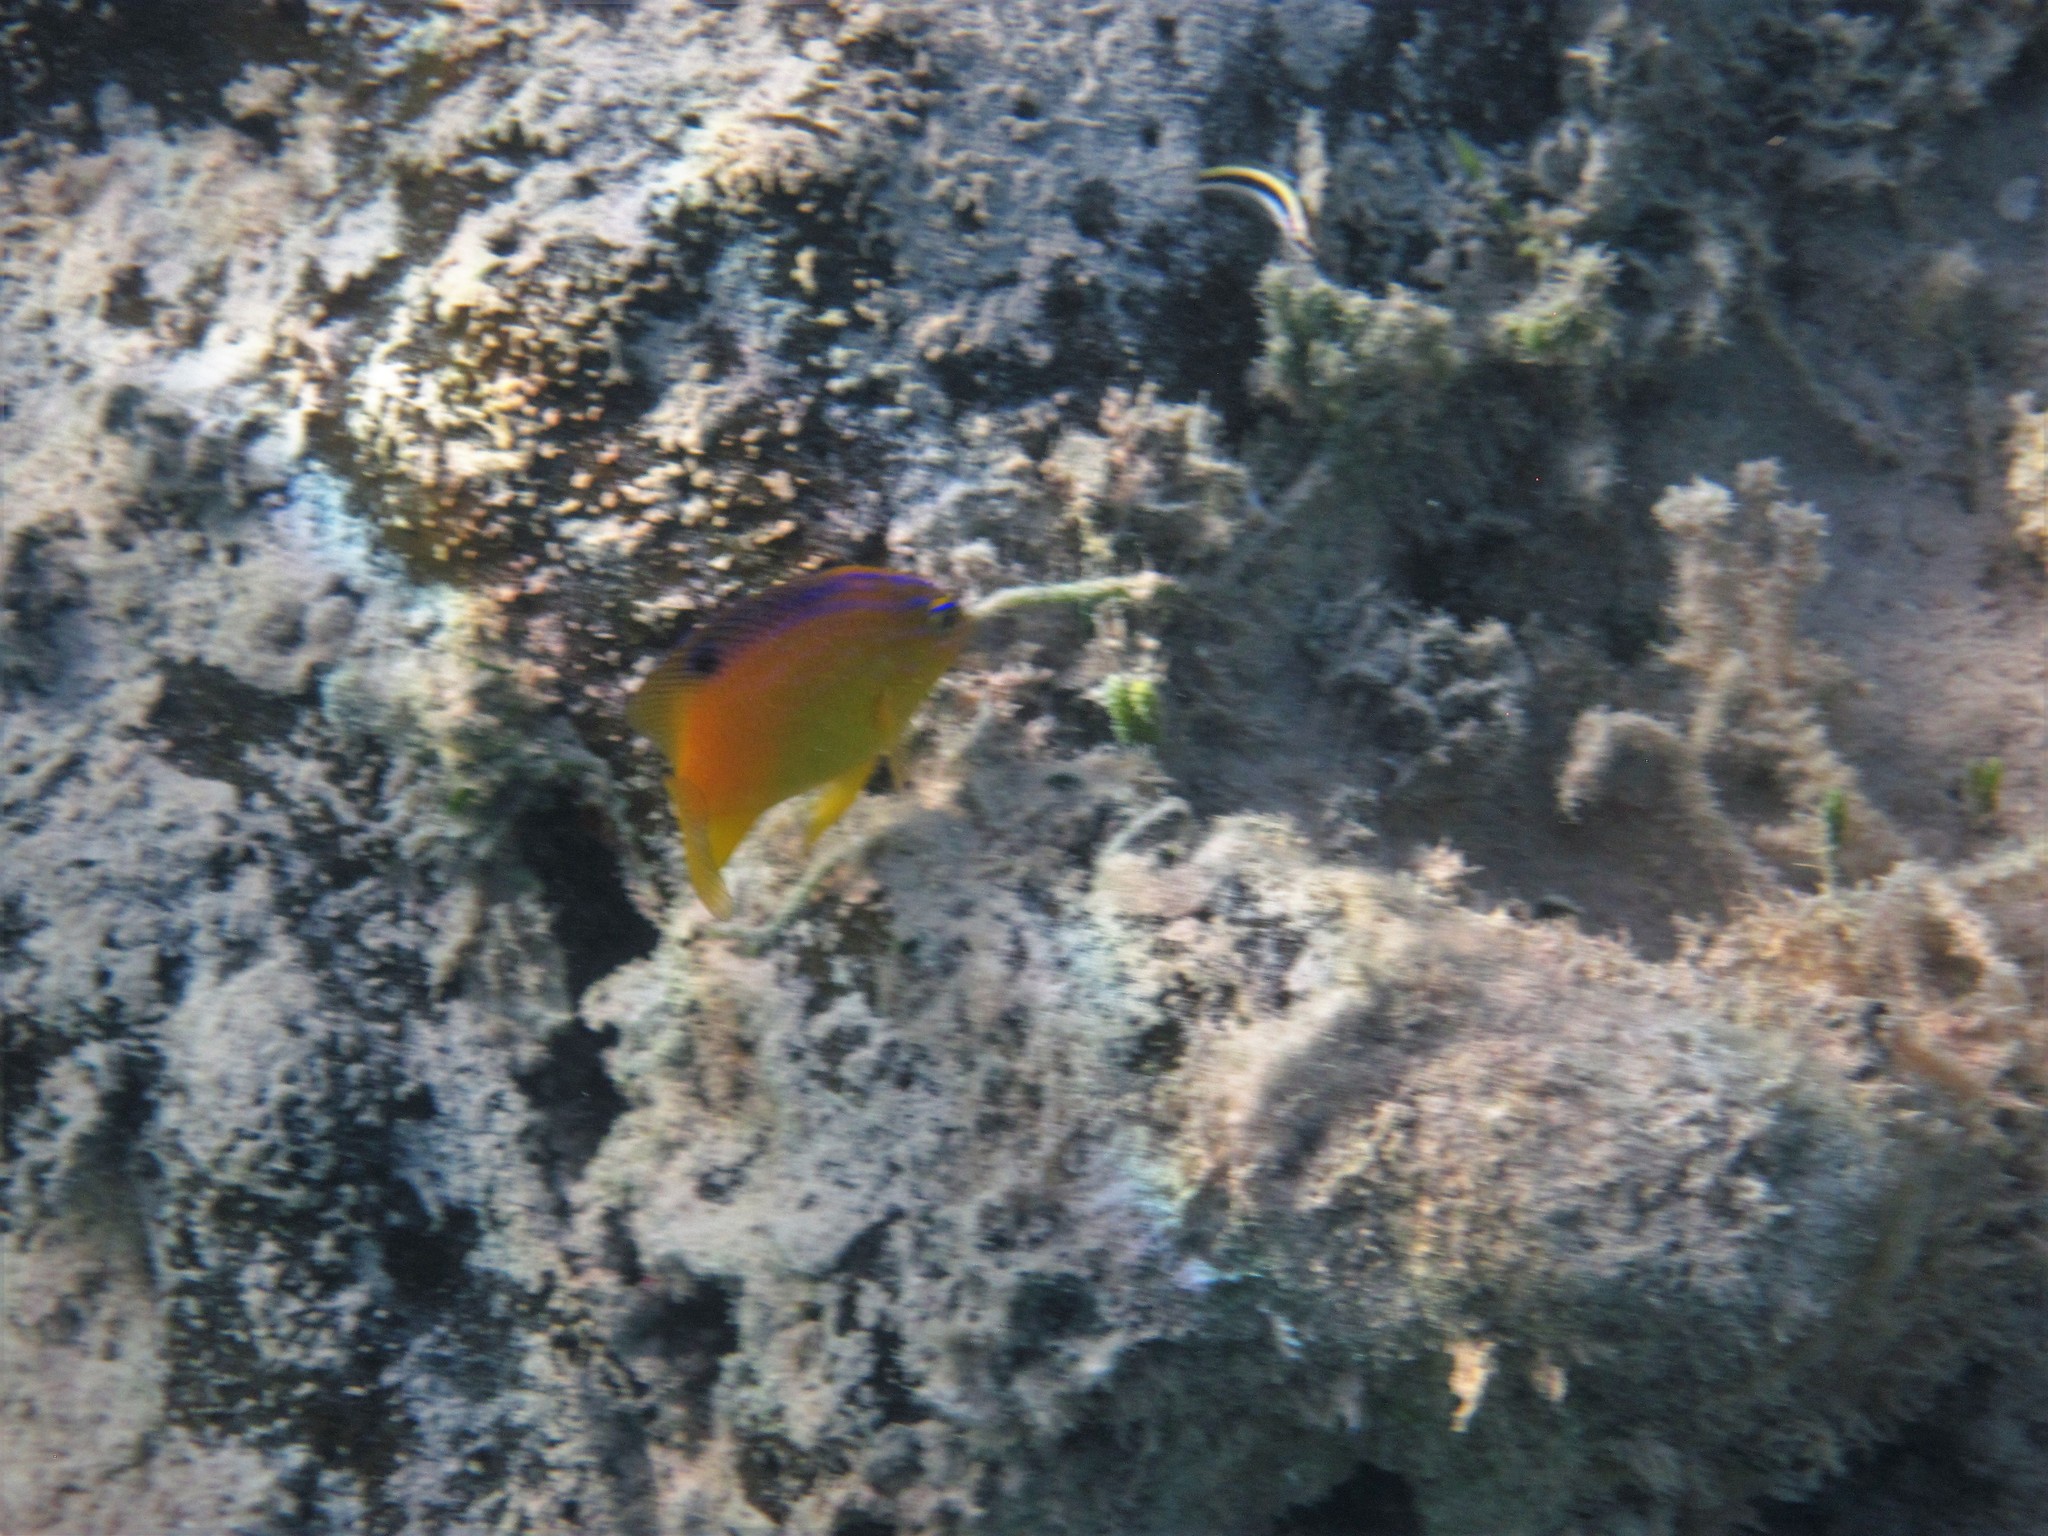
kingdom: Animalia
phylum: Chordata
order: Perciformes
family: Pomacentridae
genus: Stegastes
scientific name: Stegastes diencaeus
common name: Longfin damselfish
